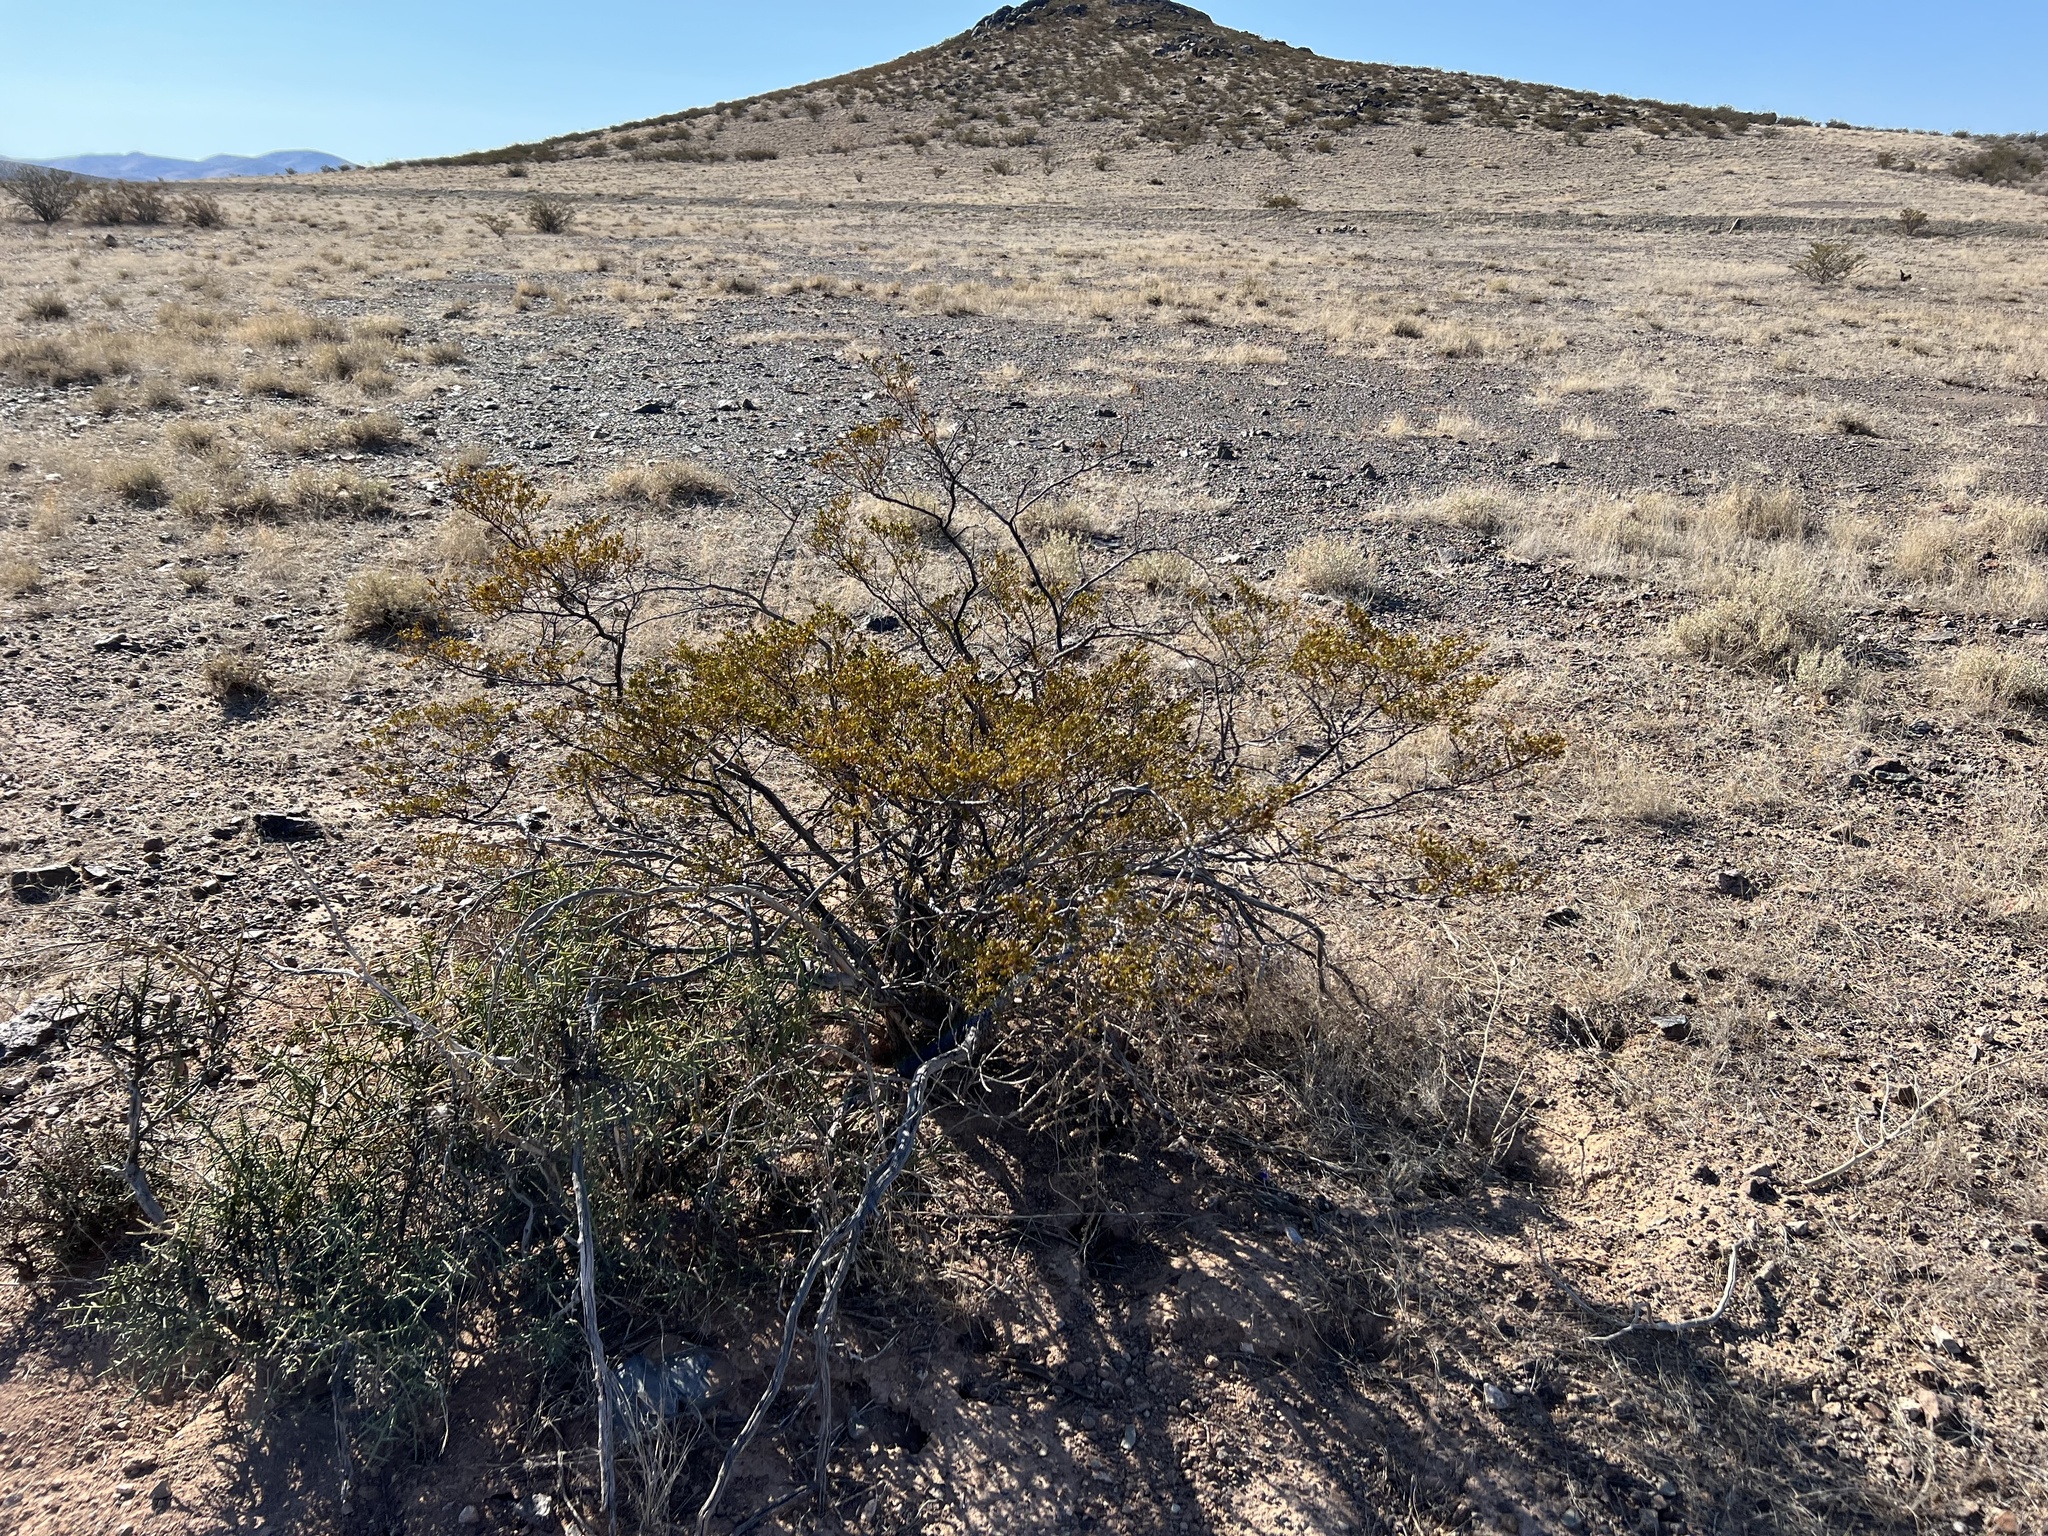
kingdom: Plantae
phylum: Tracheophyta
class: Magnoliopsida
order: Zygophyllales
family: Zygophyllaceae
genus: Larrea
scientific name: Larrea tridentata
